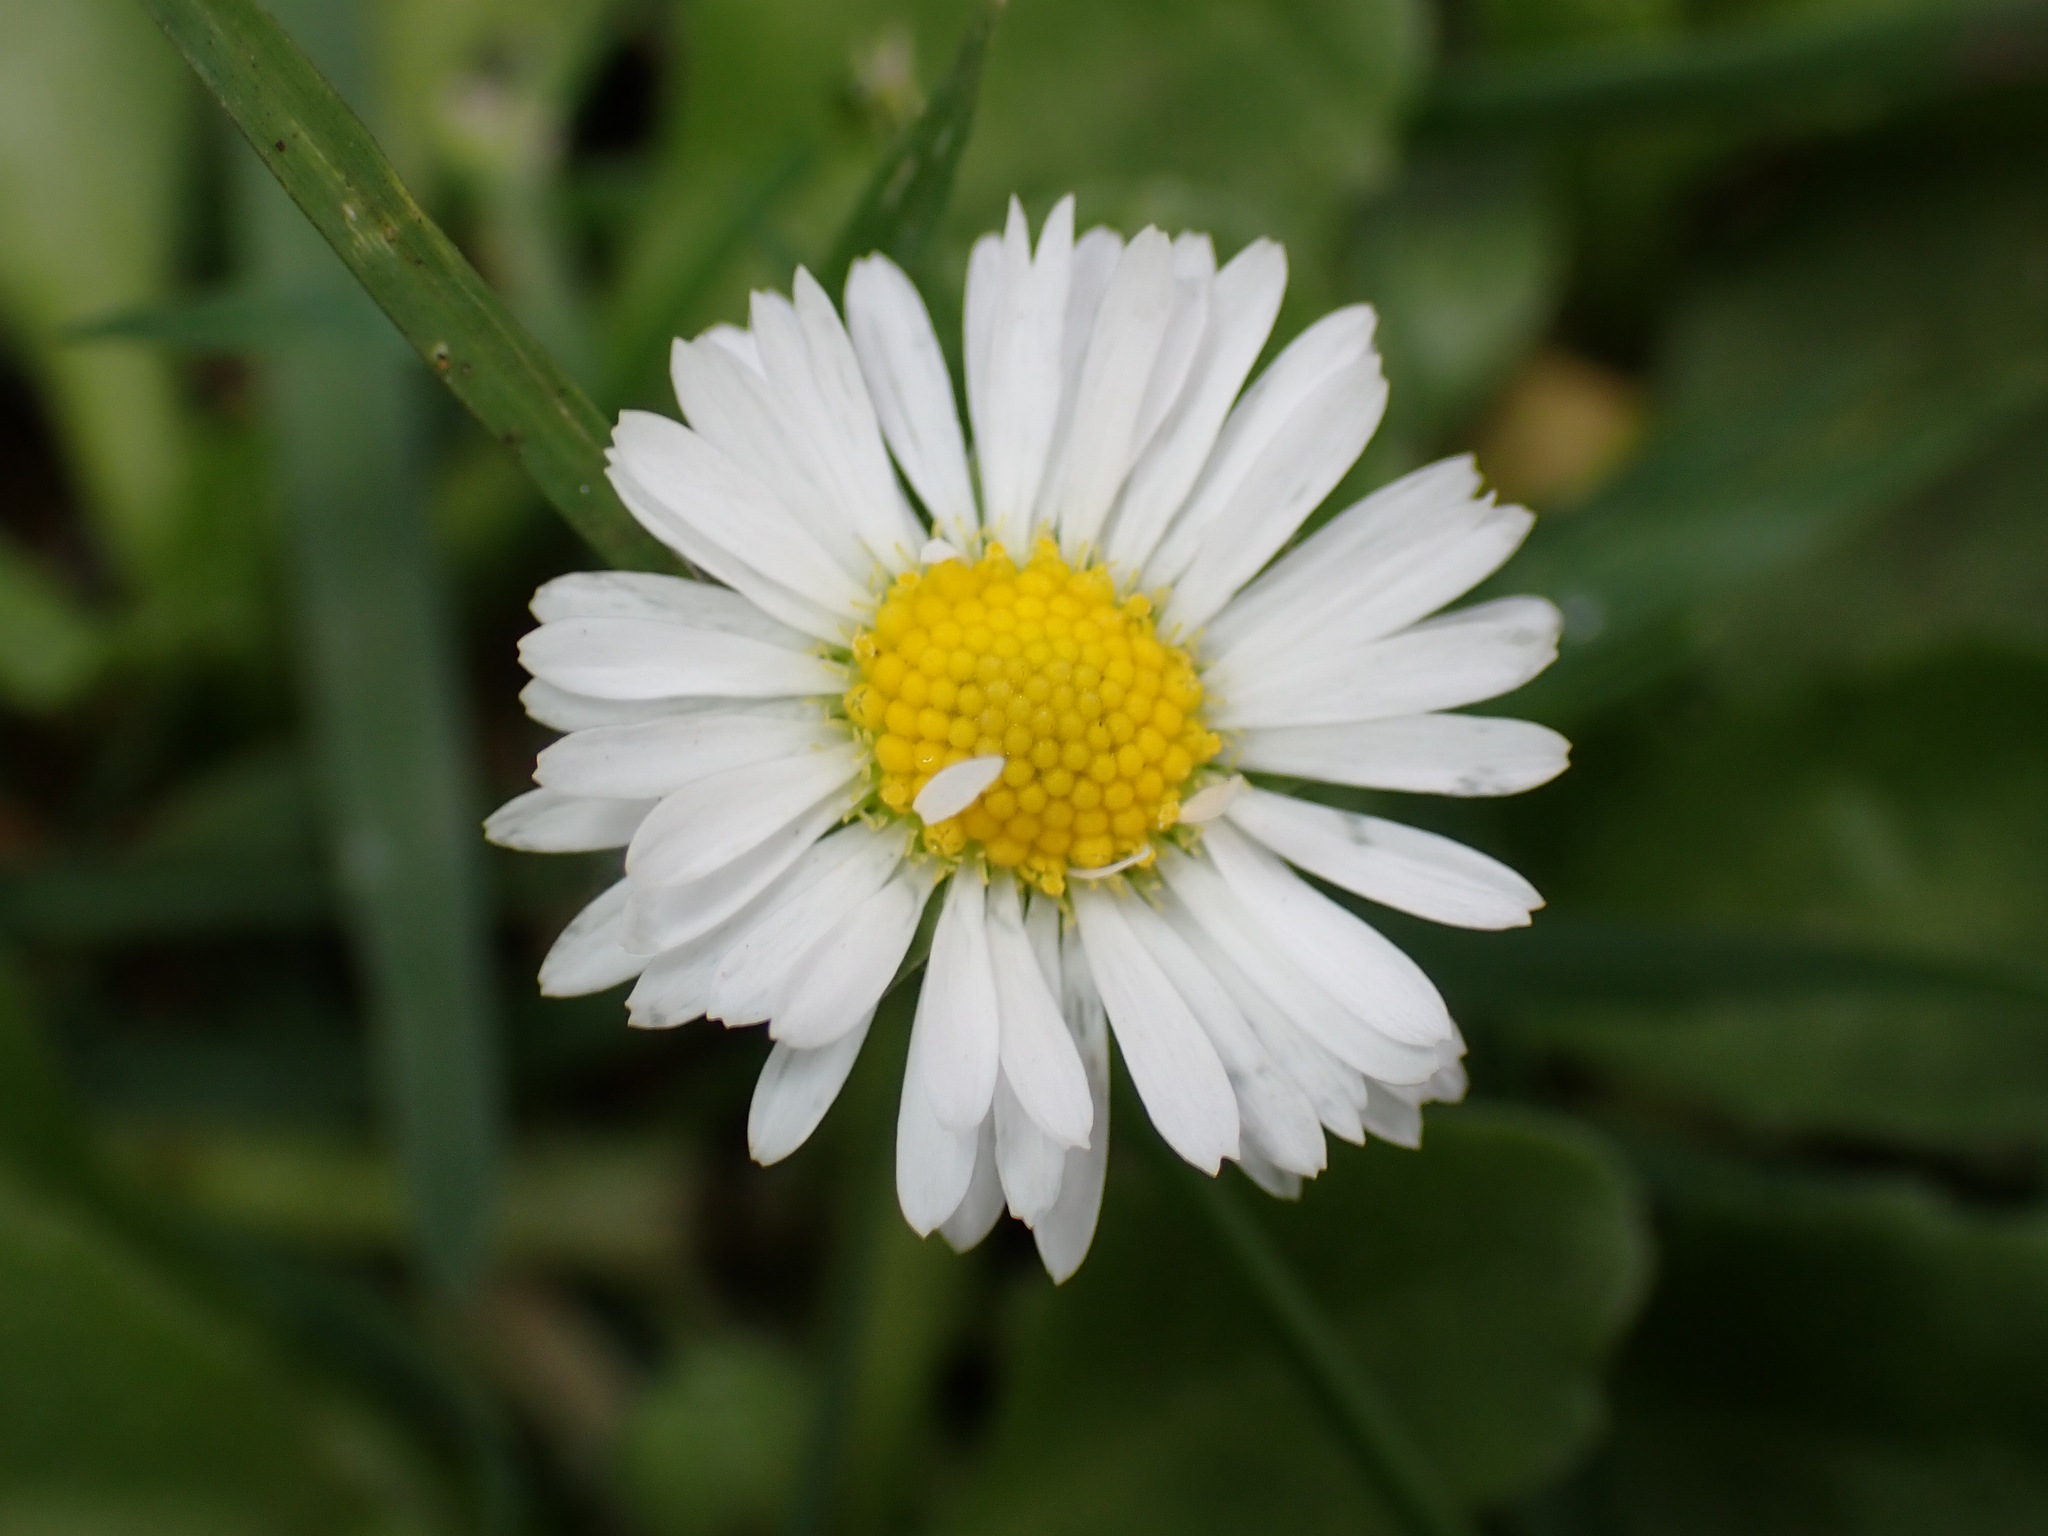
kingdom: Plantae
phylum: Tracheophyta
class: Magnoliopsida
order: Asterales
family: Asteraceae
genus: Bellis
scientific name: Bellis perennis
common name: Lawndaisy
